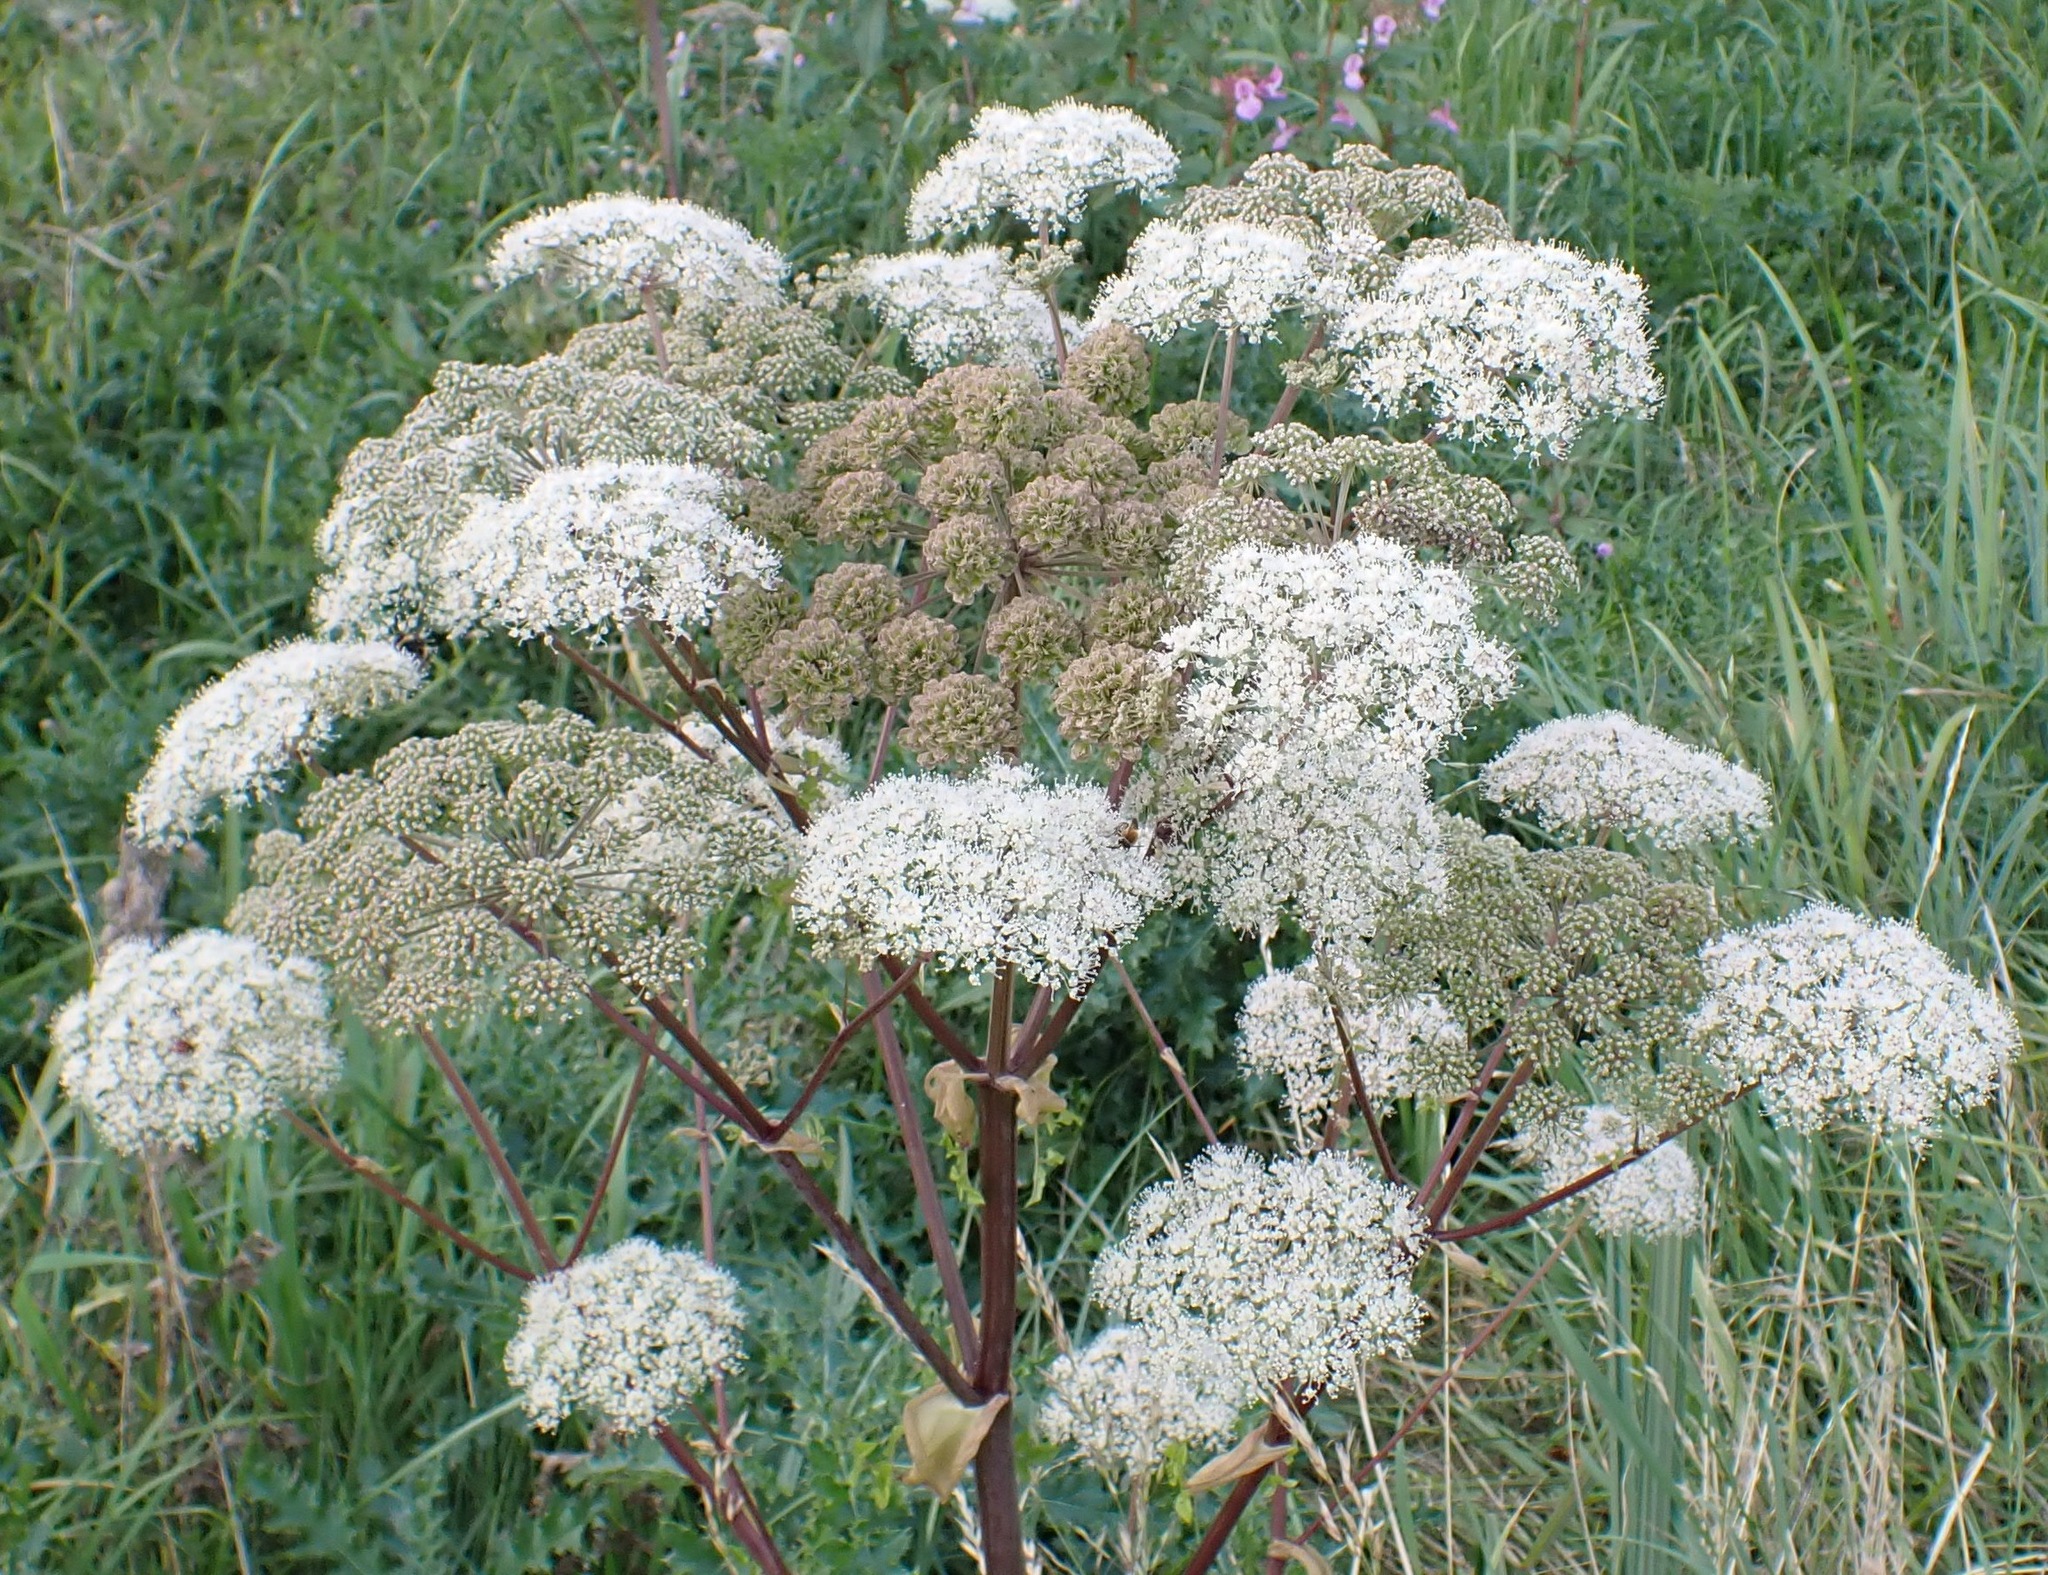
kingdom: Plantae
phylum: Tracheophyta
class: Magnoliopsida
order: Apiales
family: Apiaceae
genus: Angelica
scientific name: Angelica sylvestris
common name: Wild angelica
